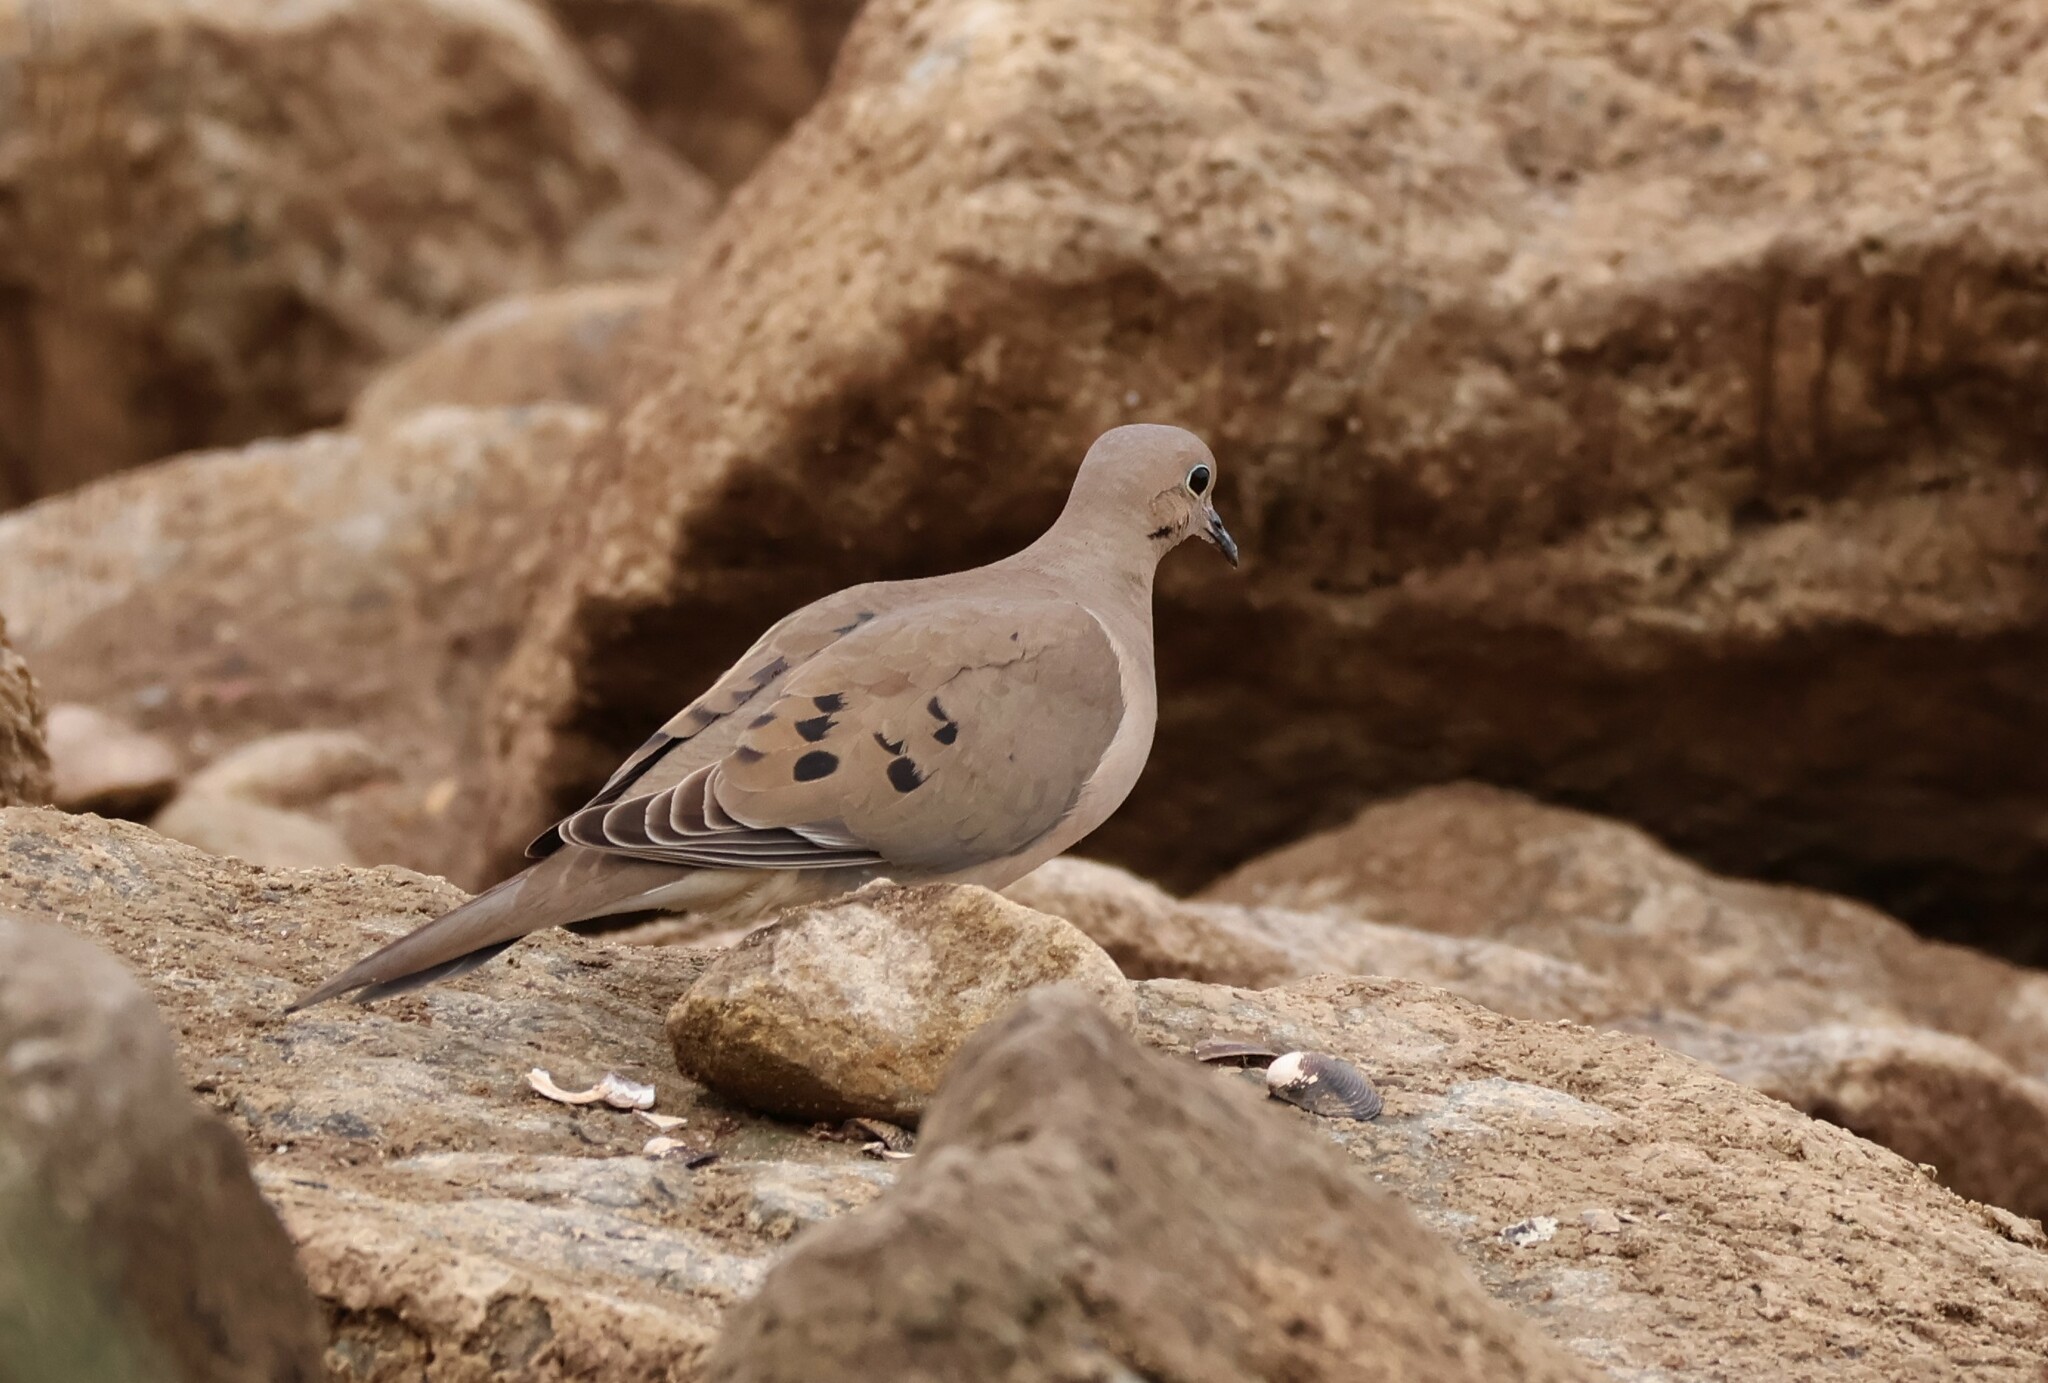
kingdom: Animalia
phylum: Chordata
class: Aves
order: Columbiformes
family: Columbidae
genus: Zenaida
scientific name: Zenaida macroura
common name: Mourning dove
